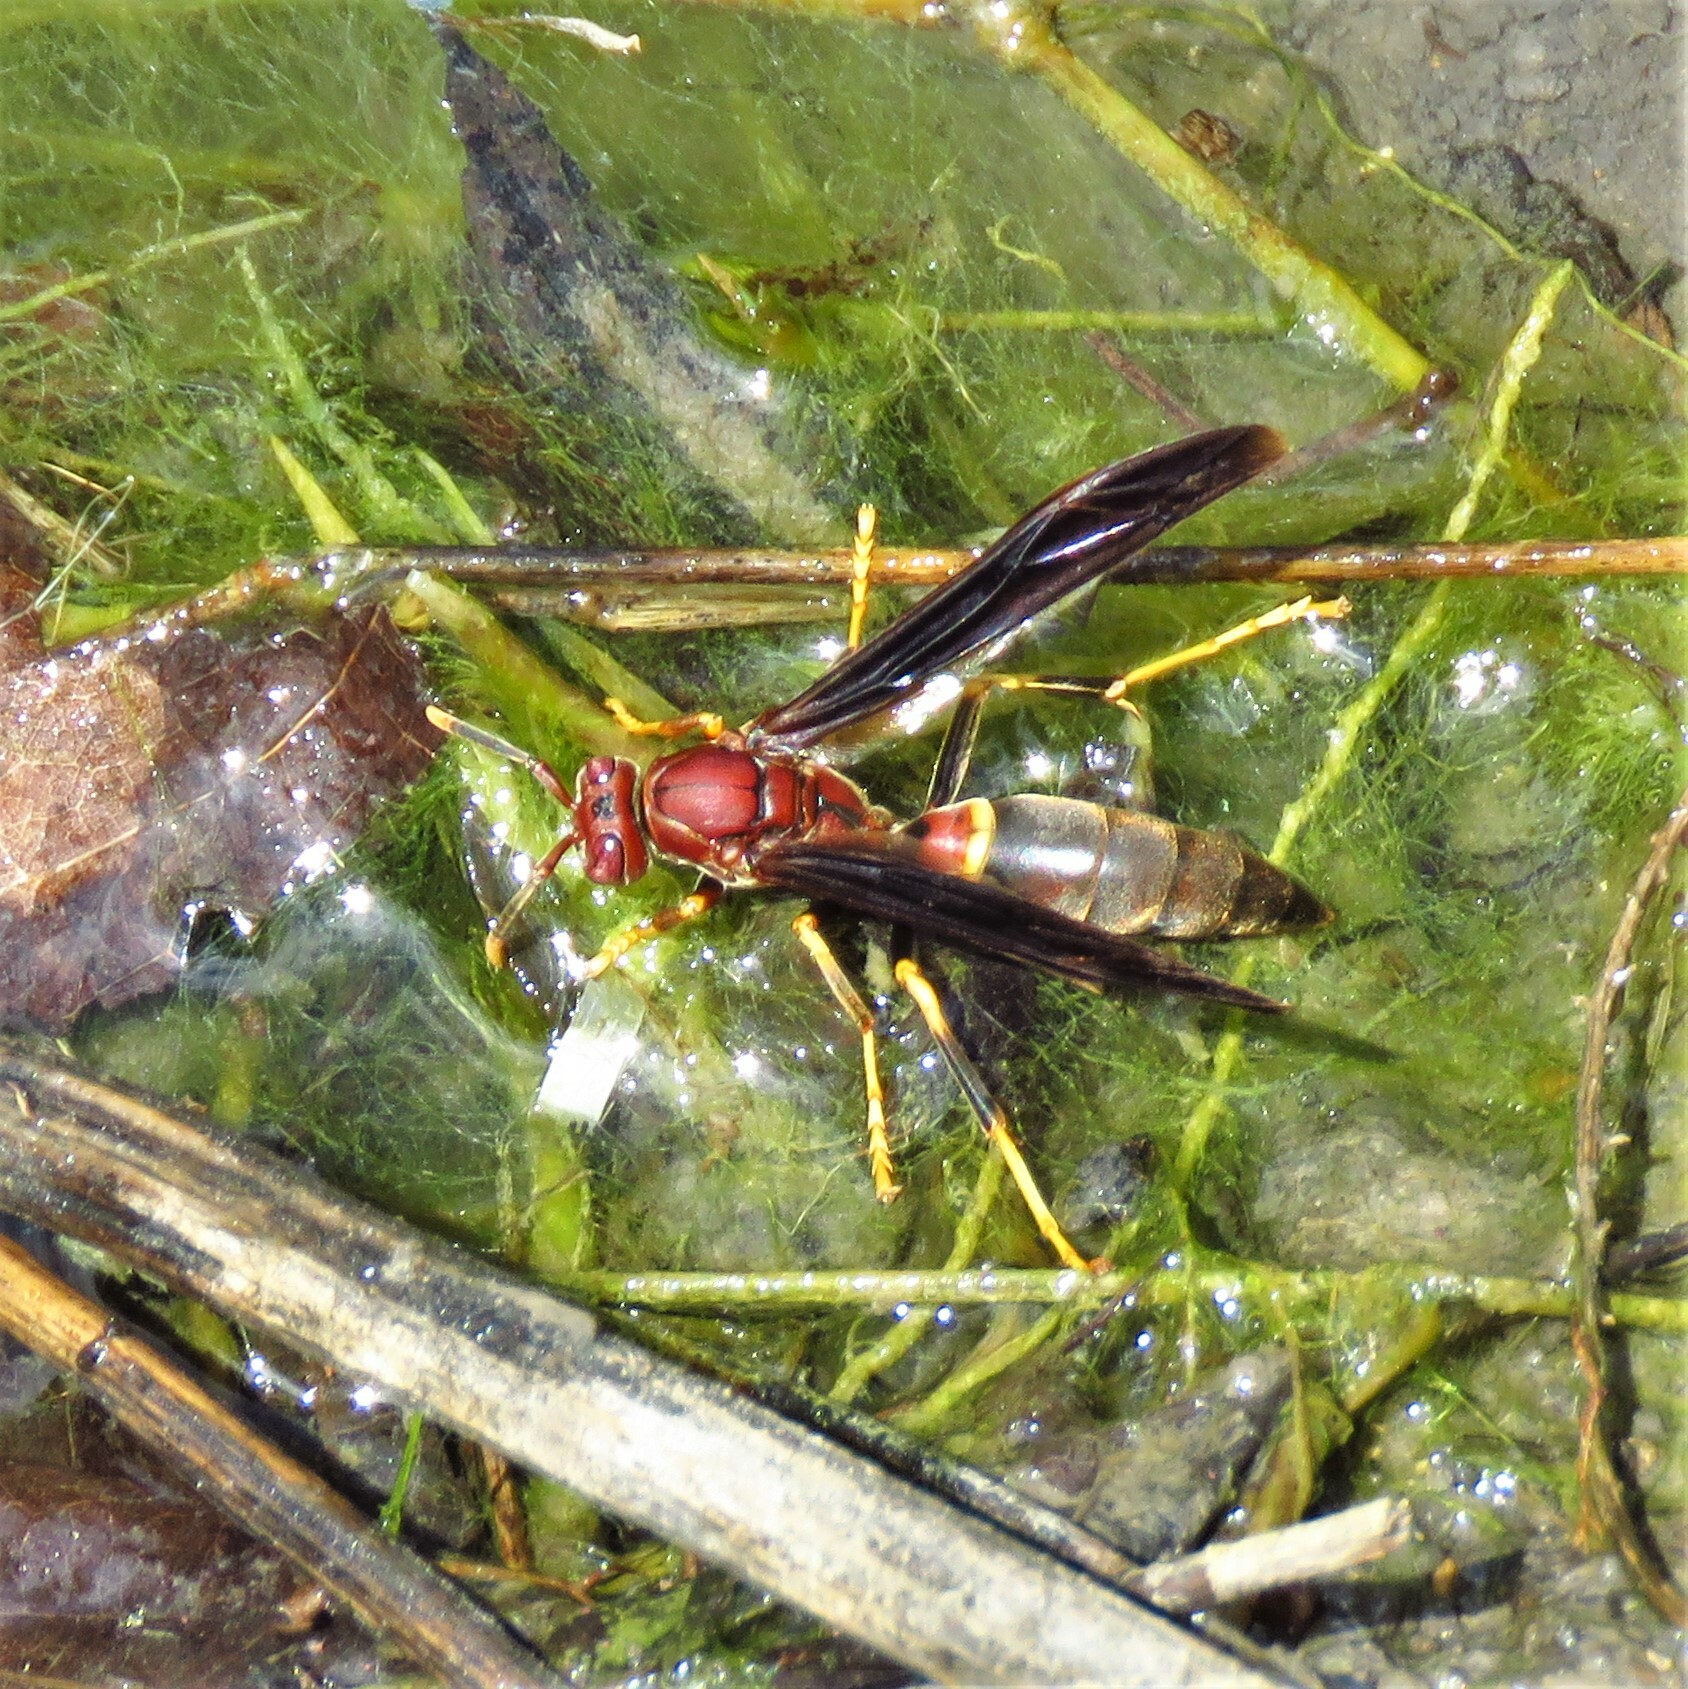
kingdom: Animalia
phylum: Arthropoda
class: Insecta
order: Hymenoptera
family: Eumenidae
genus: Polistes
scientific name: Polistes annularis
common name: Ringed paper wasp
